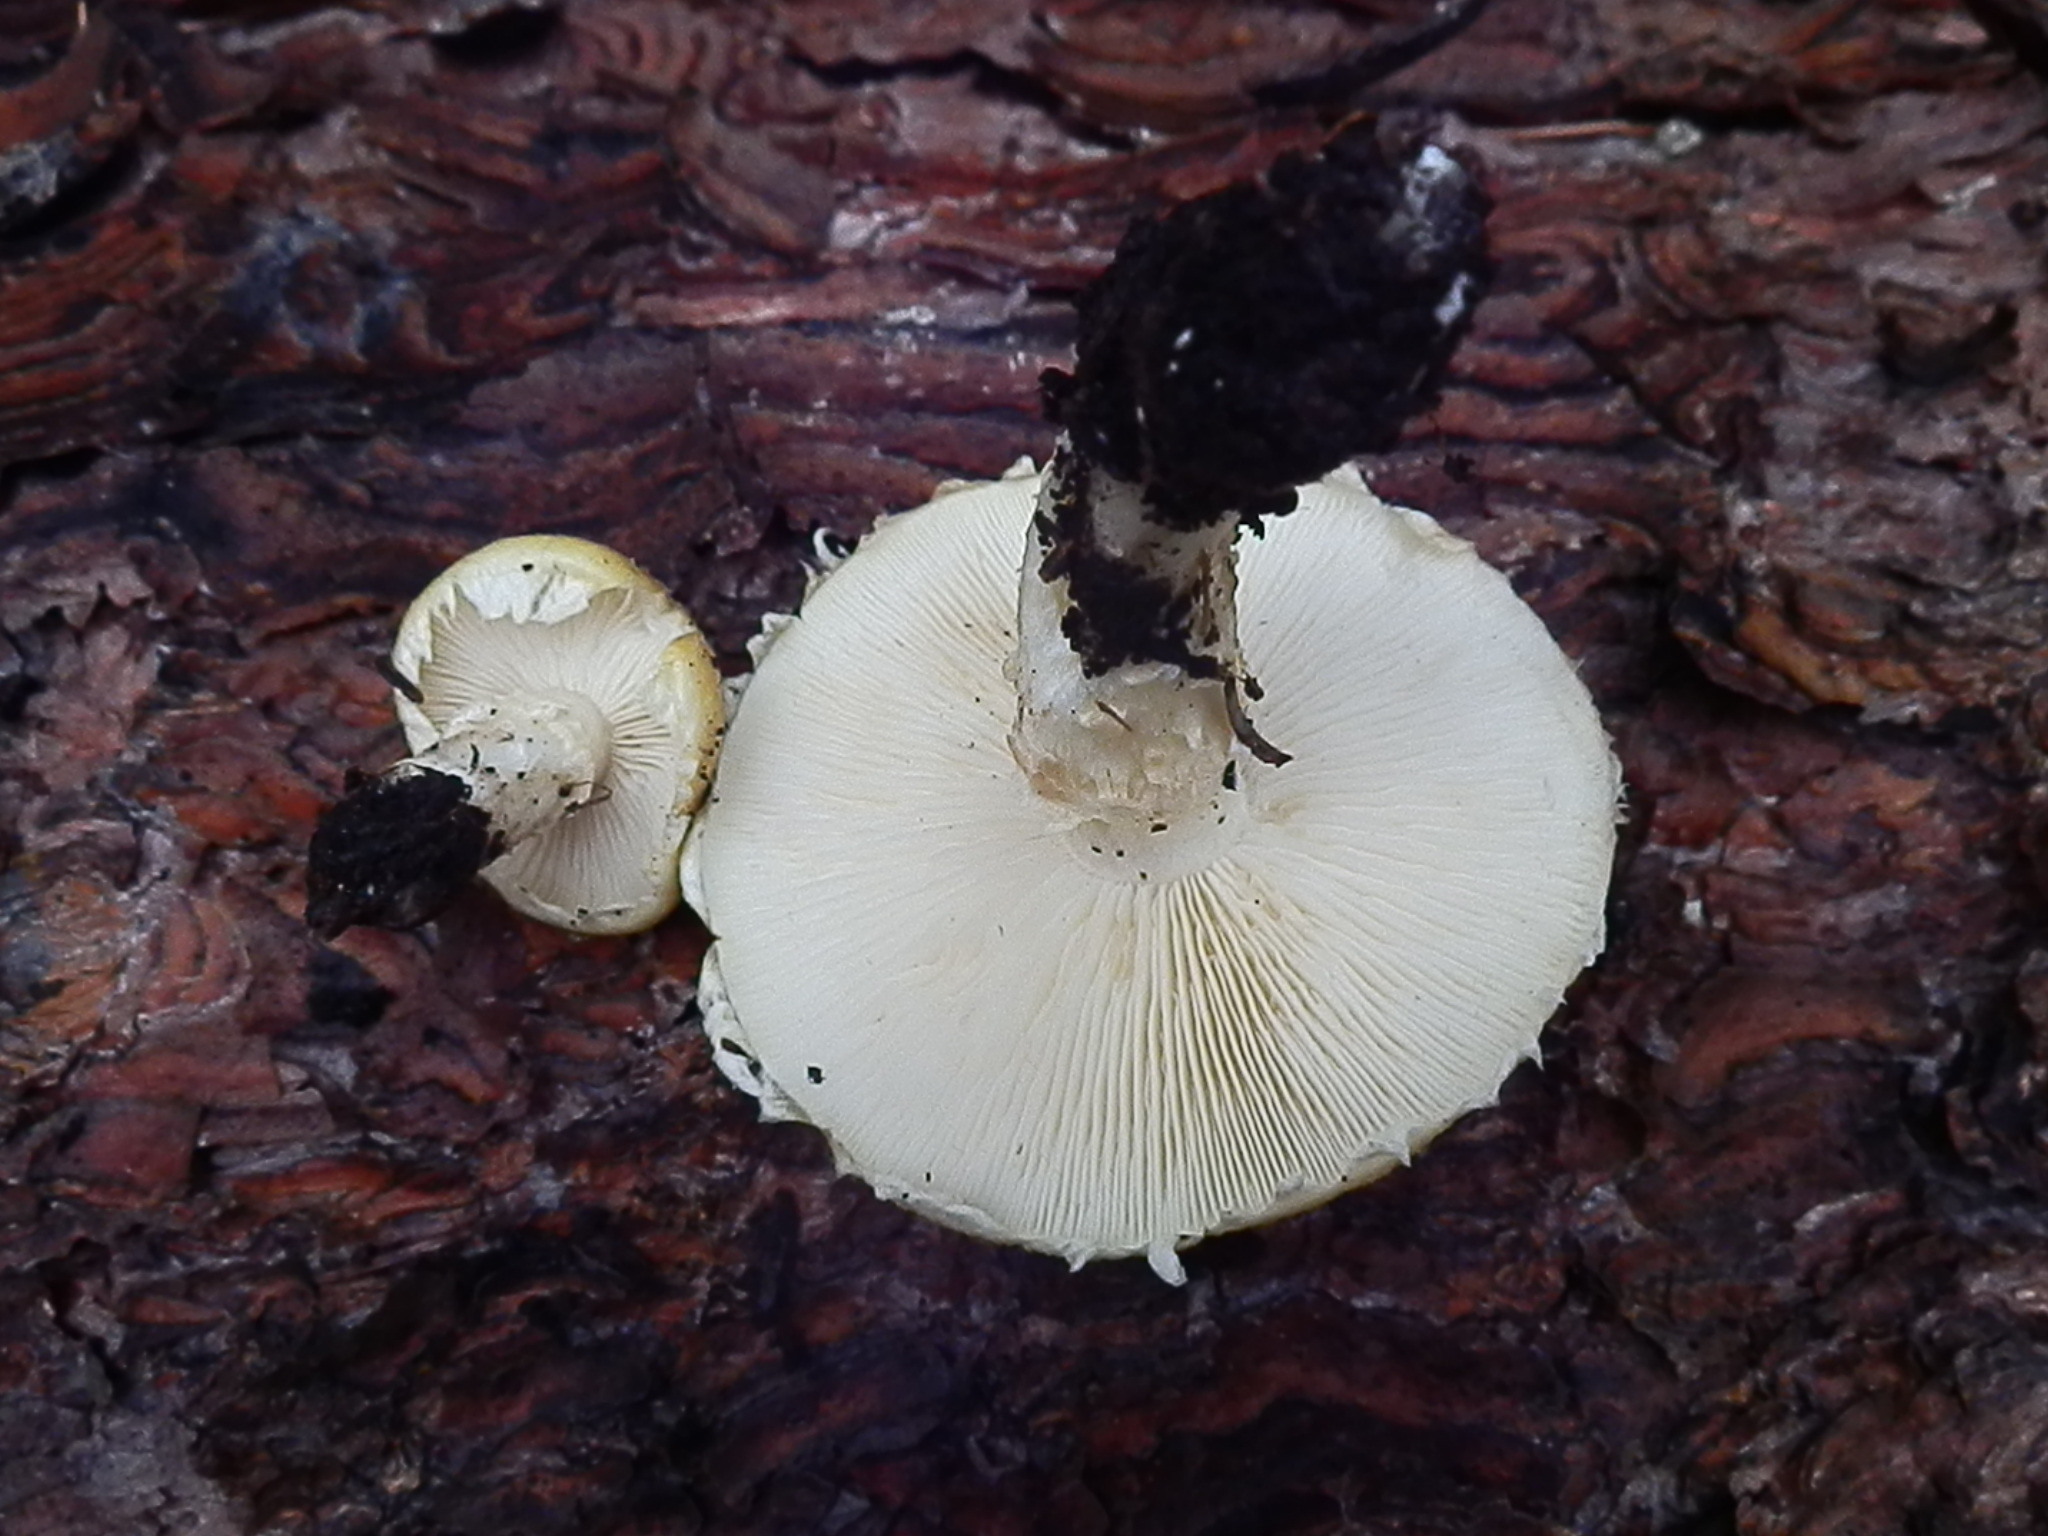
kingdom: Fungi
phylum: Basidiomycota
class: Agaricomycetes
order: Agaricales
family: Agaricaceae
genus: Floccularia
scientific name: Floccularia albolanaripes
